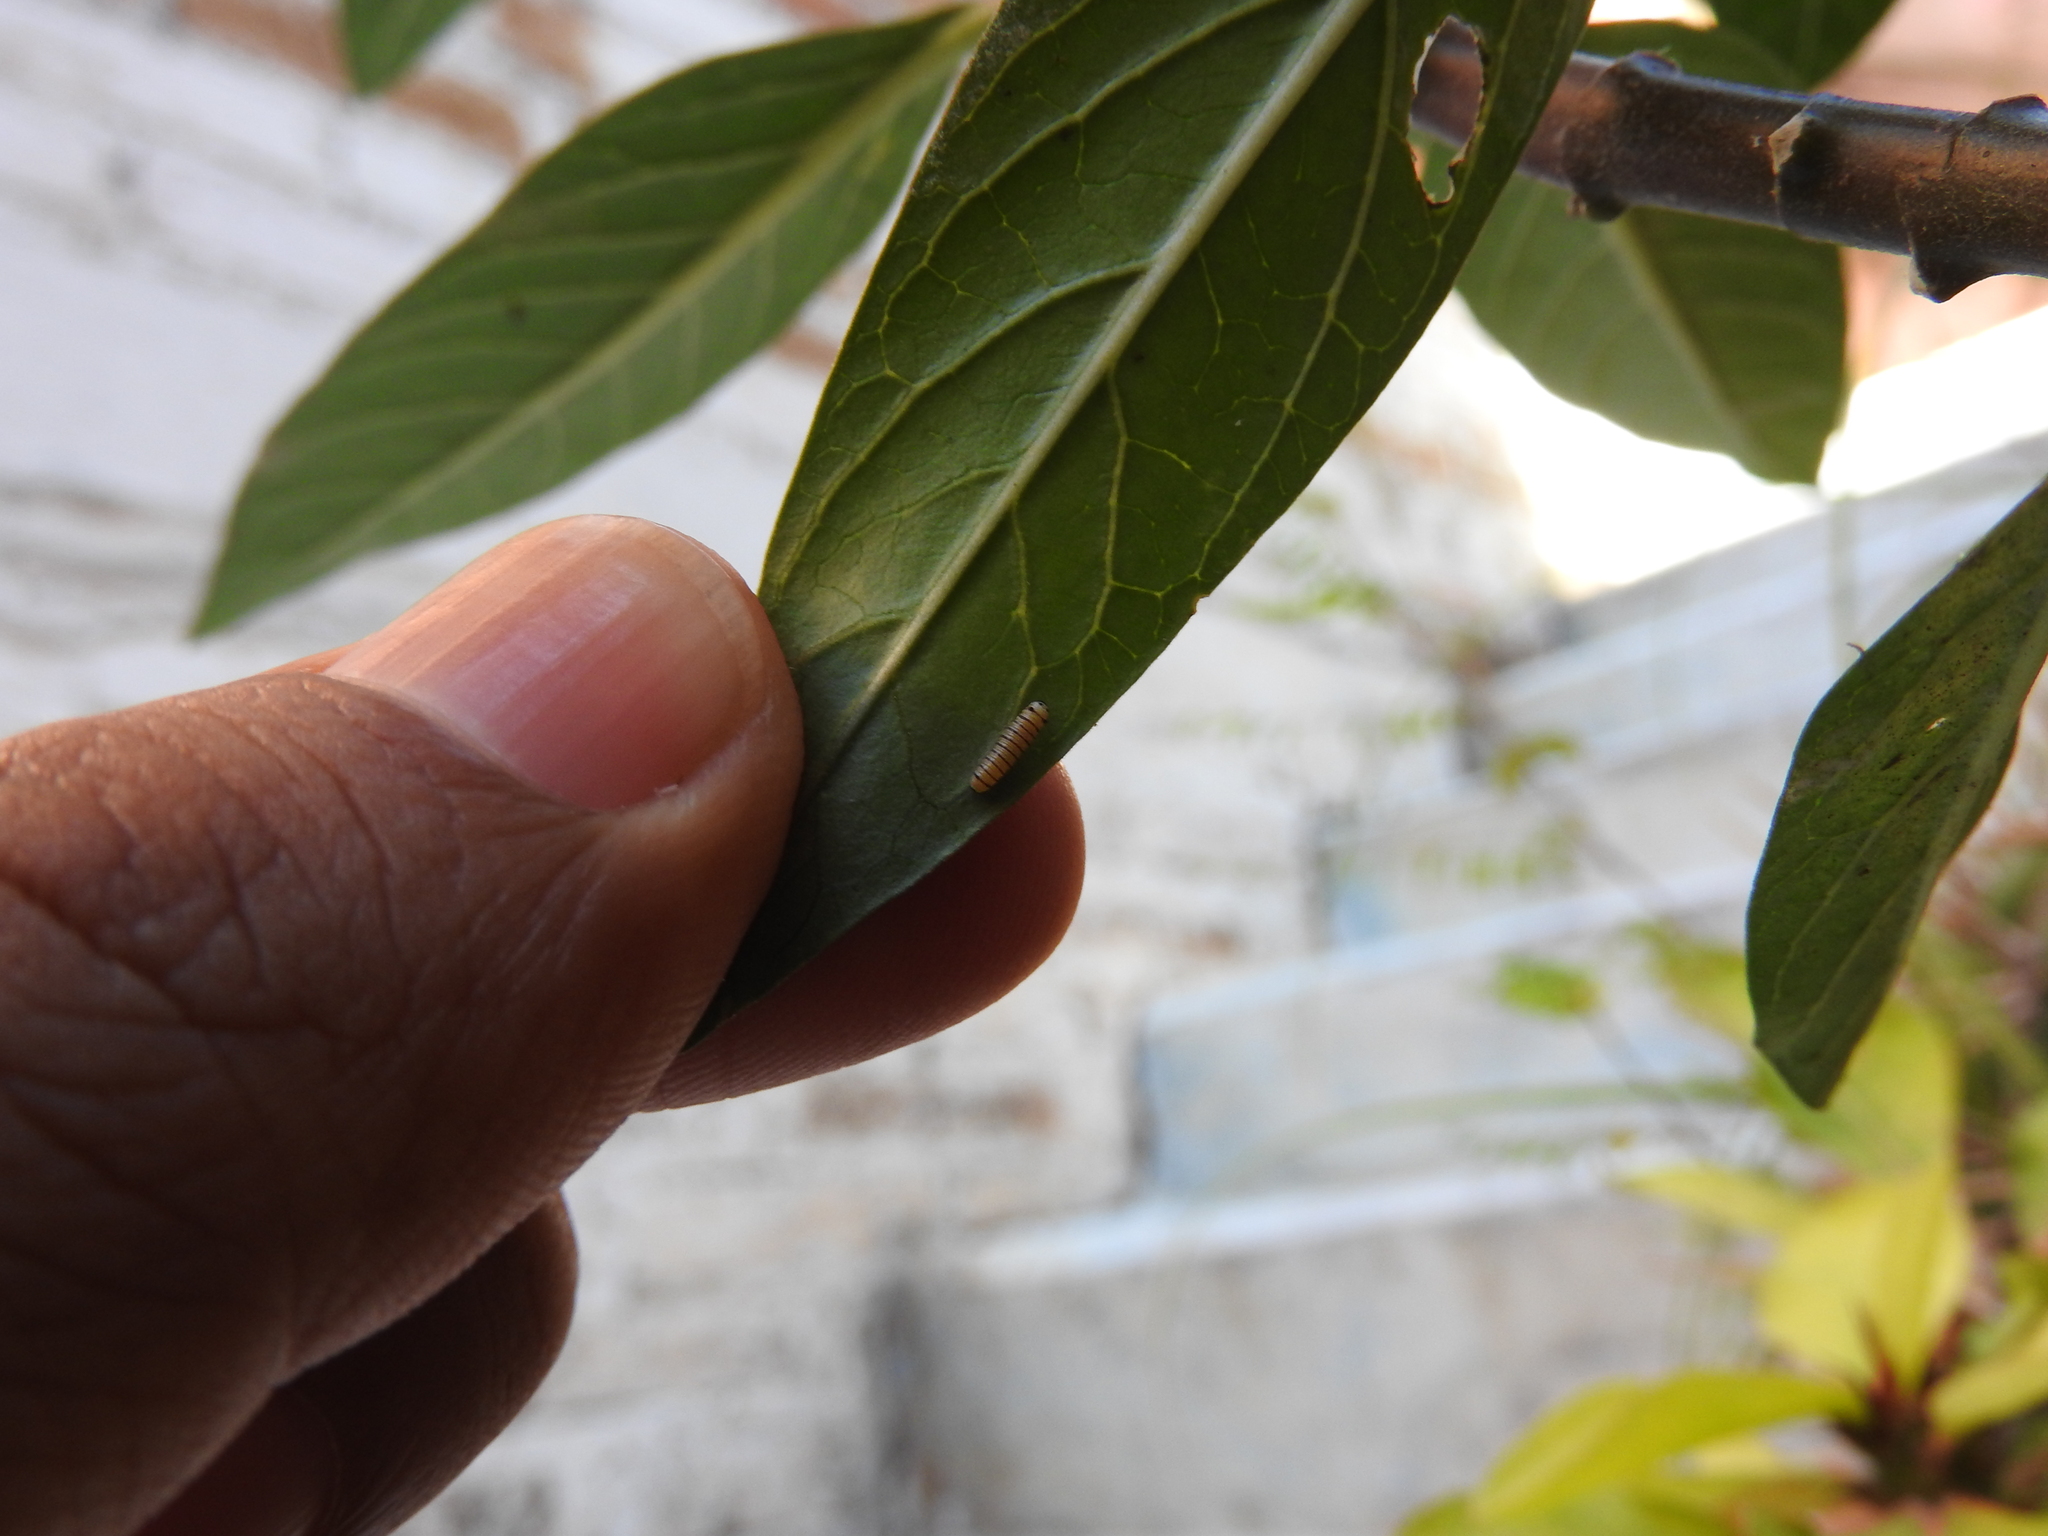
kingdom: Animalia
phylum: Arthropoda
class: Insecta
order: Lepidoptera
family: Nymphalidae
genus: Danaus
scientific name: Danaus plexippus
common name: Monarch
